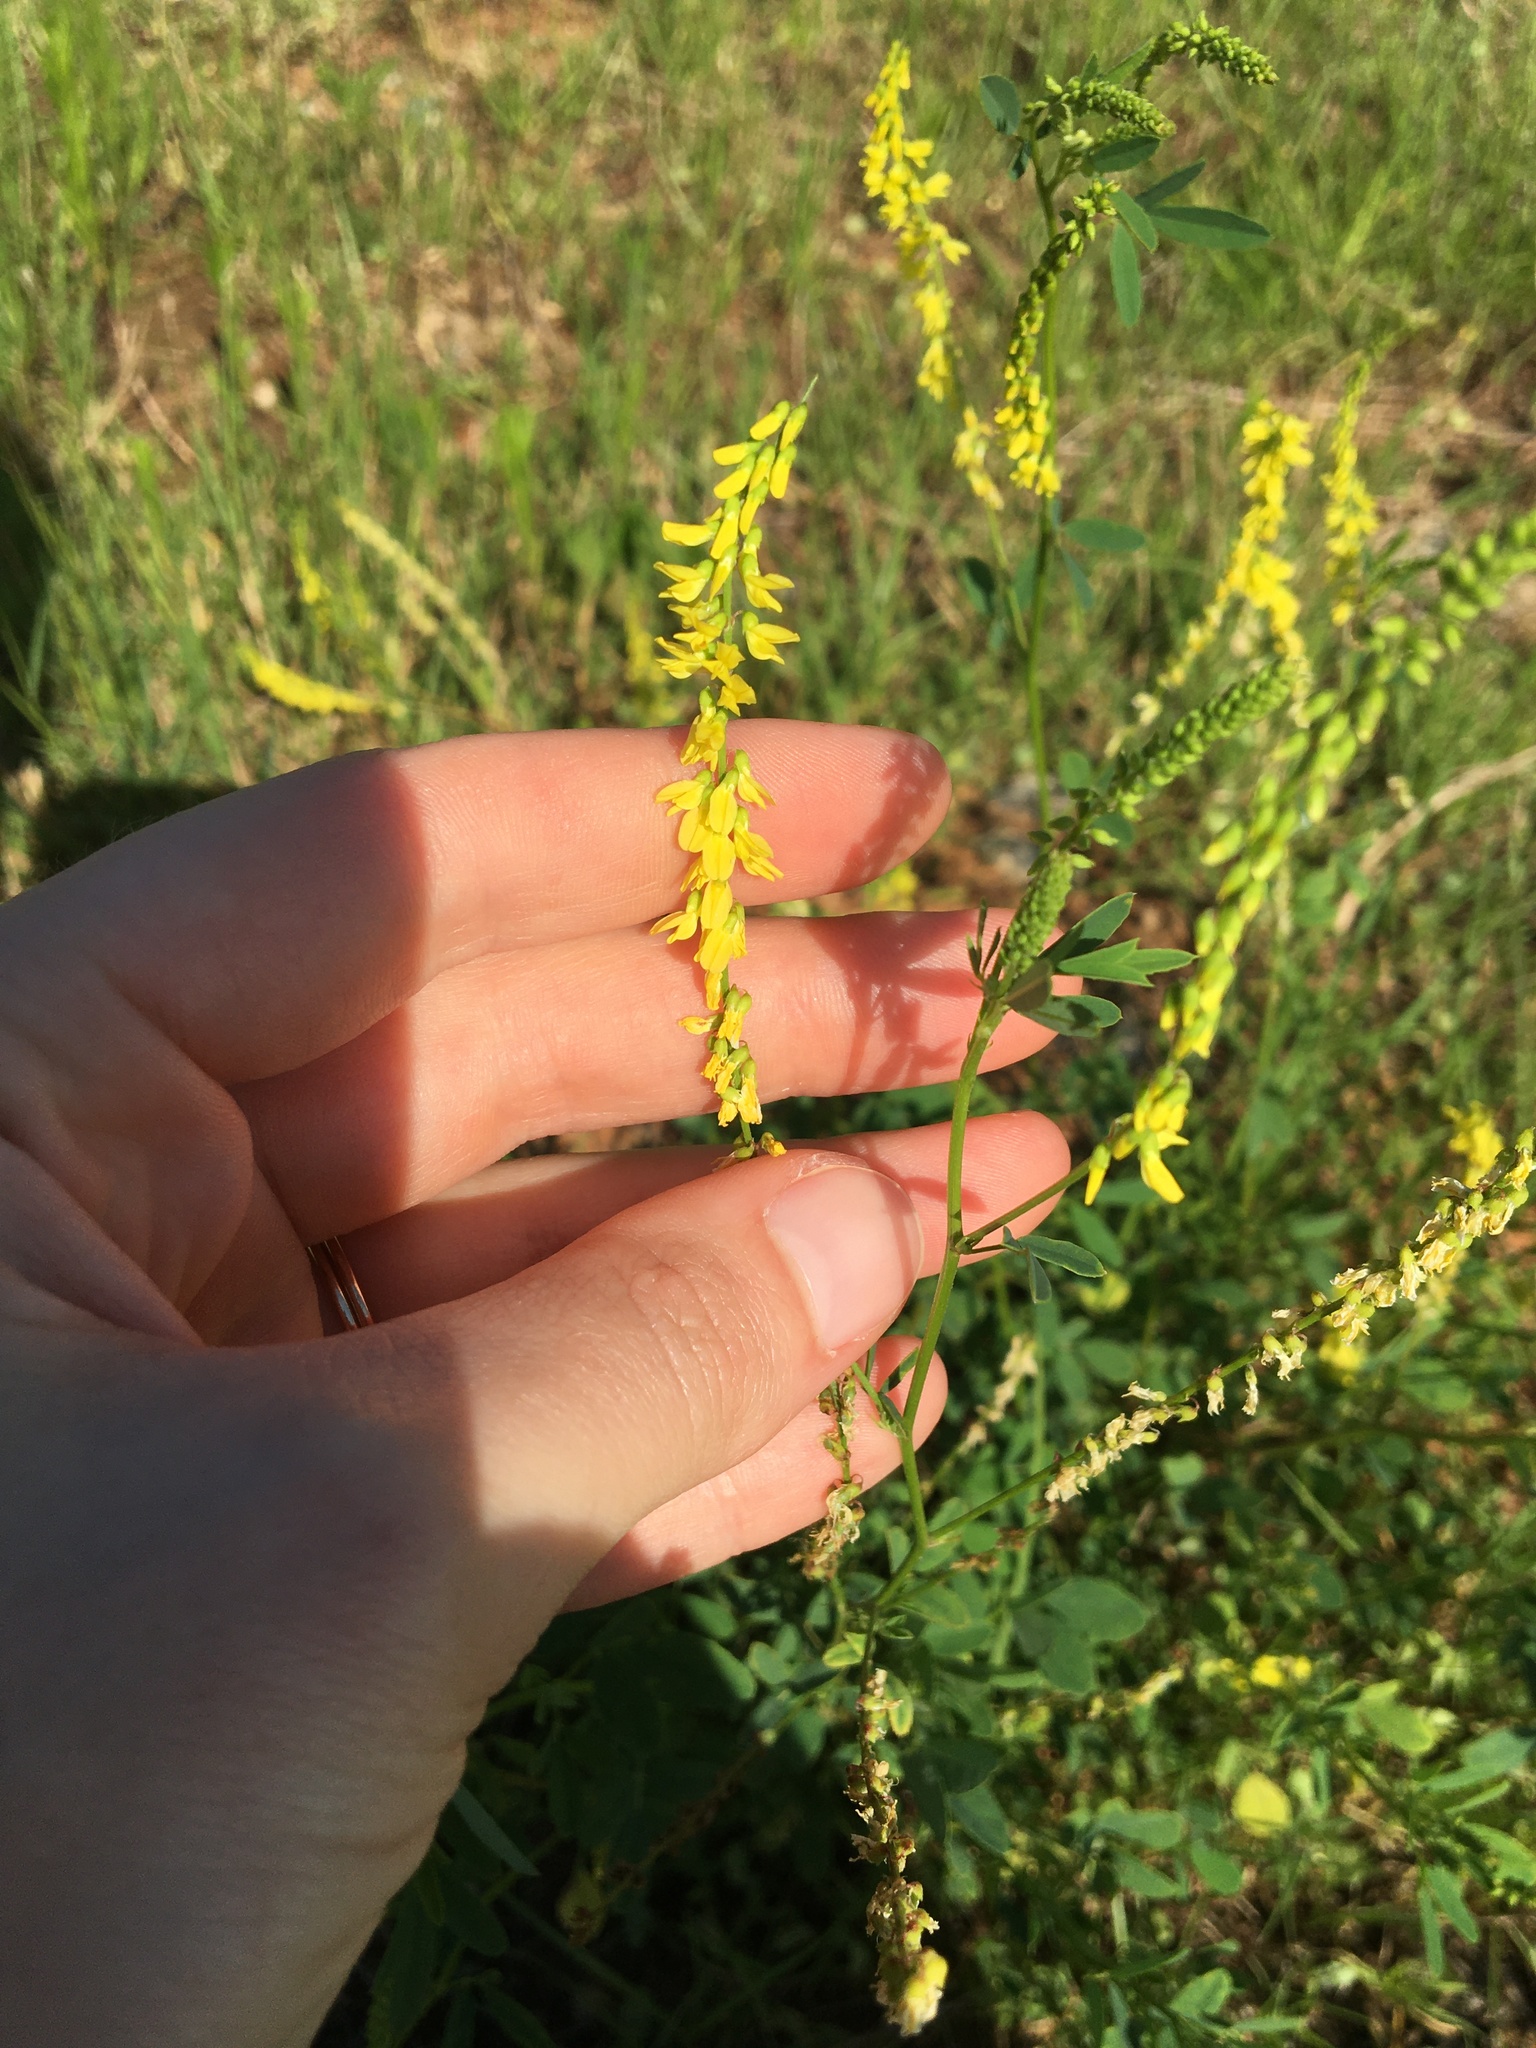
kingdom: Plantae
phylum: Tracheophyta
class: Magnoliopsida
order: Fabales
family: Fabaceae
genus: Melilotus
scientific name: Melilotus officinalis
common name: Sweetclover
